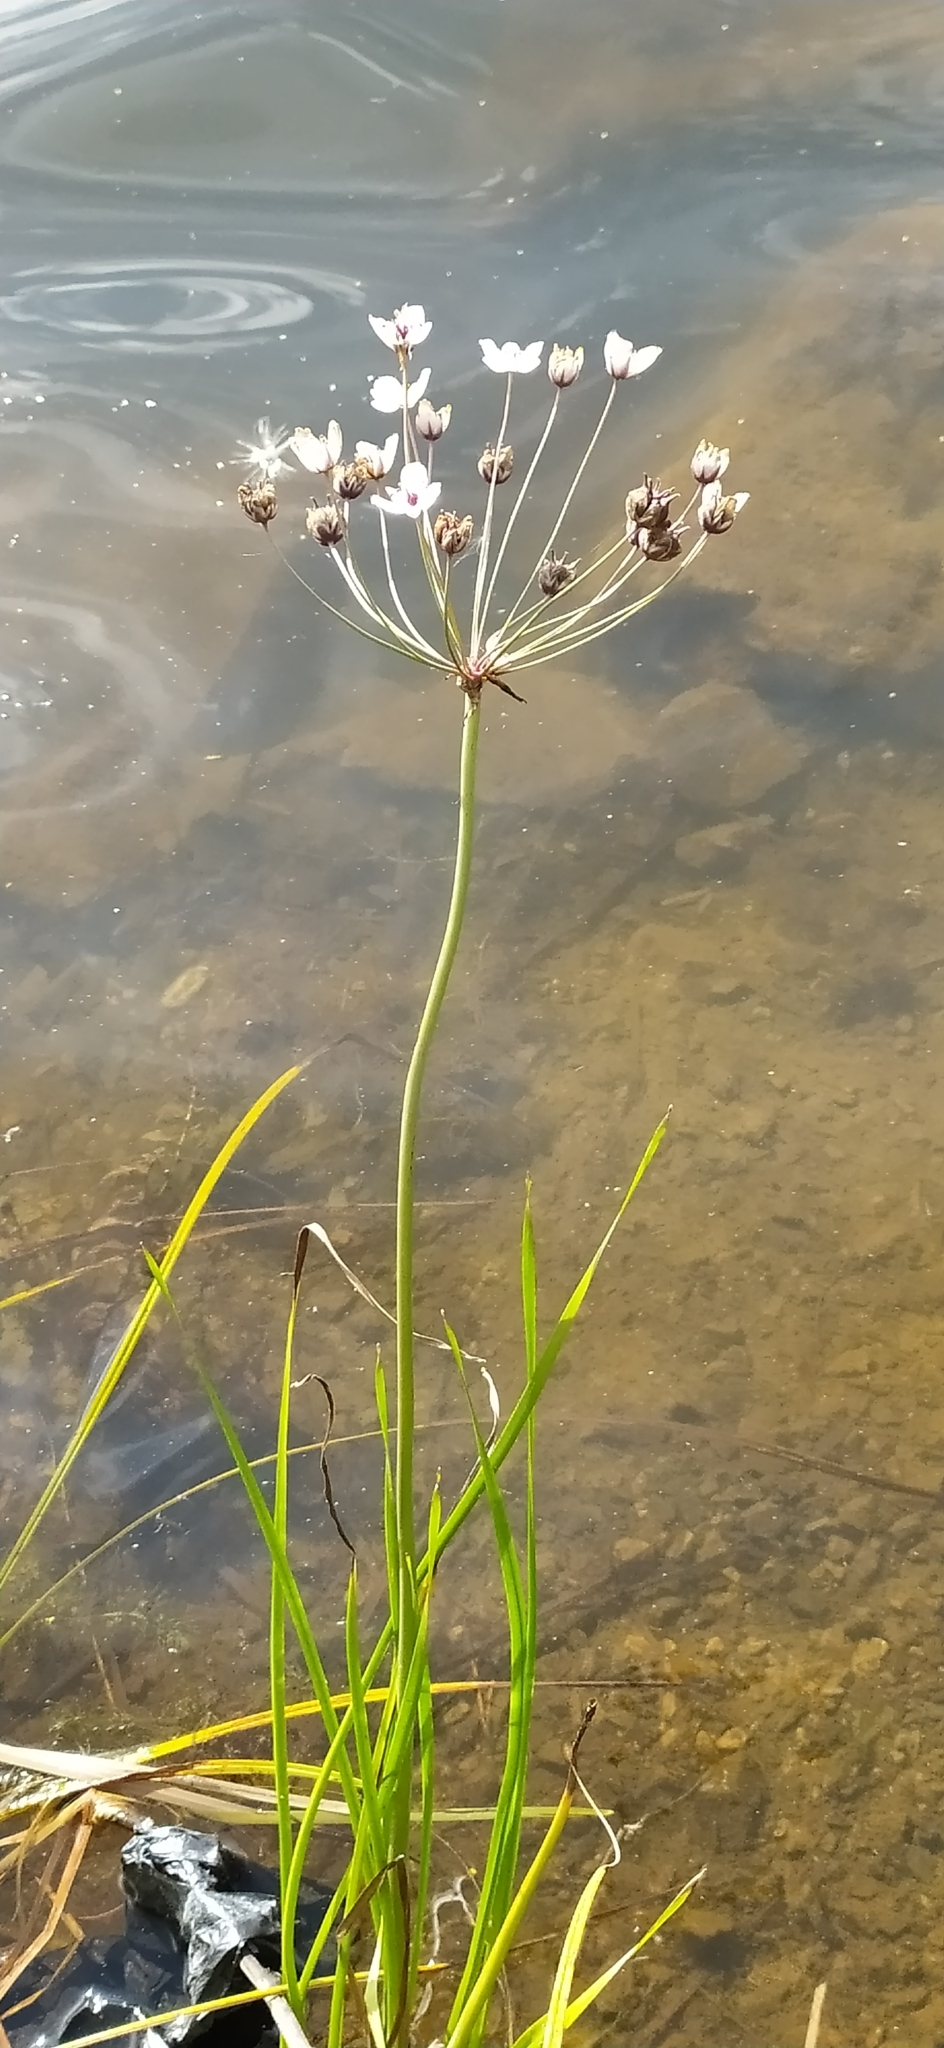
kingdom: Plantae
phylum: Tracheophyta
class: Liliopsida
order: Alismatales
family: Butomaceae
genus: Butomus
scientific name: Butomus umbellatus
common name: Flowering-rush
